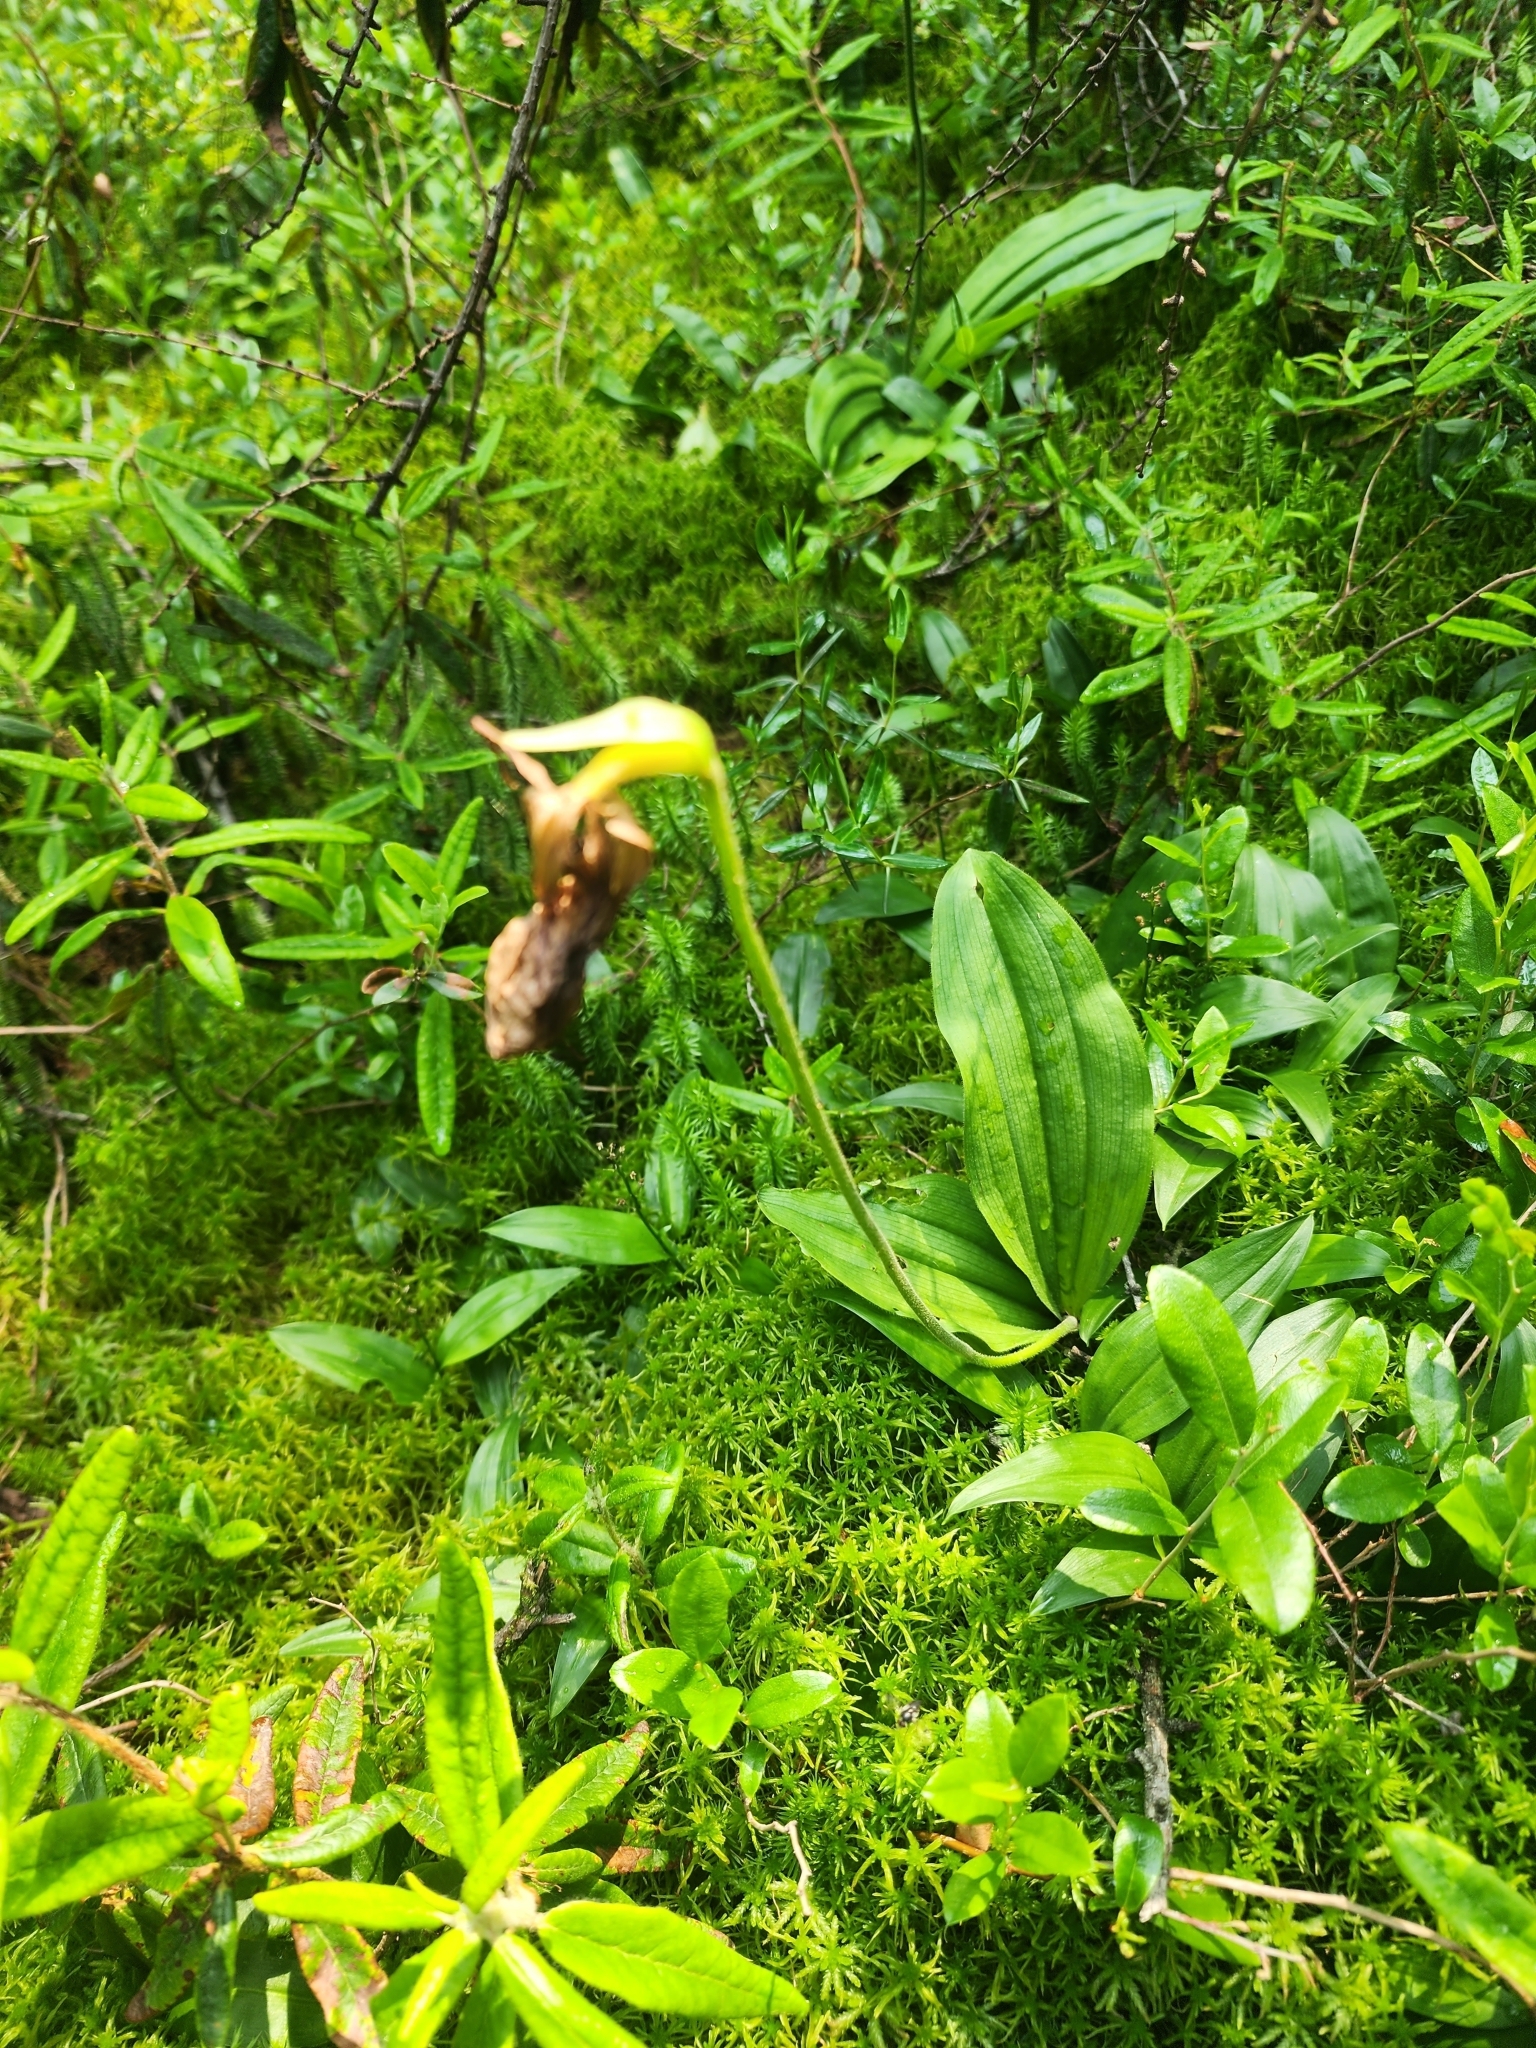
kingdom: Plantae
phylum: Tracheophyta
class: Liliopsida
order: Asparagales
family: Orchidaceae
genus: Cypripedium
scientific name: Cypripedium acaule
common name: Pink lady's-slipper
